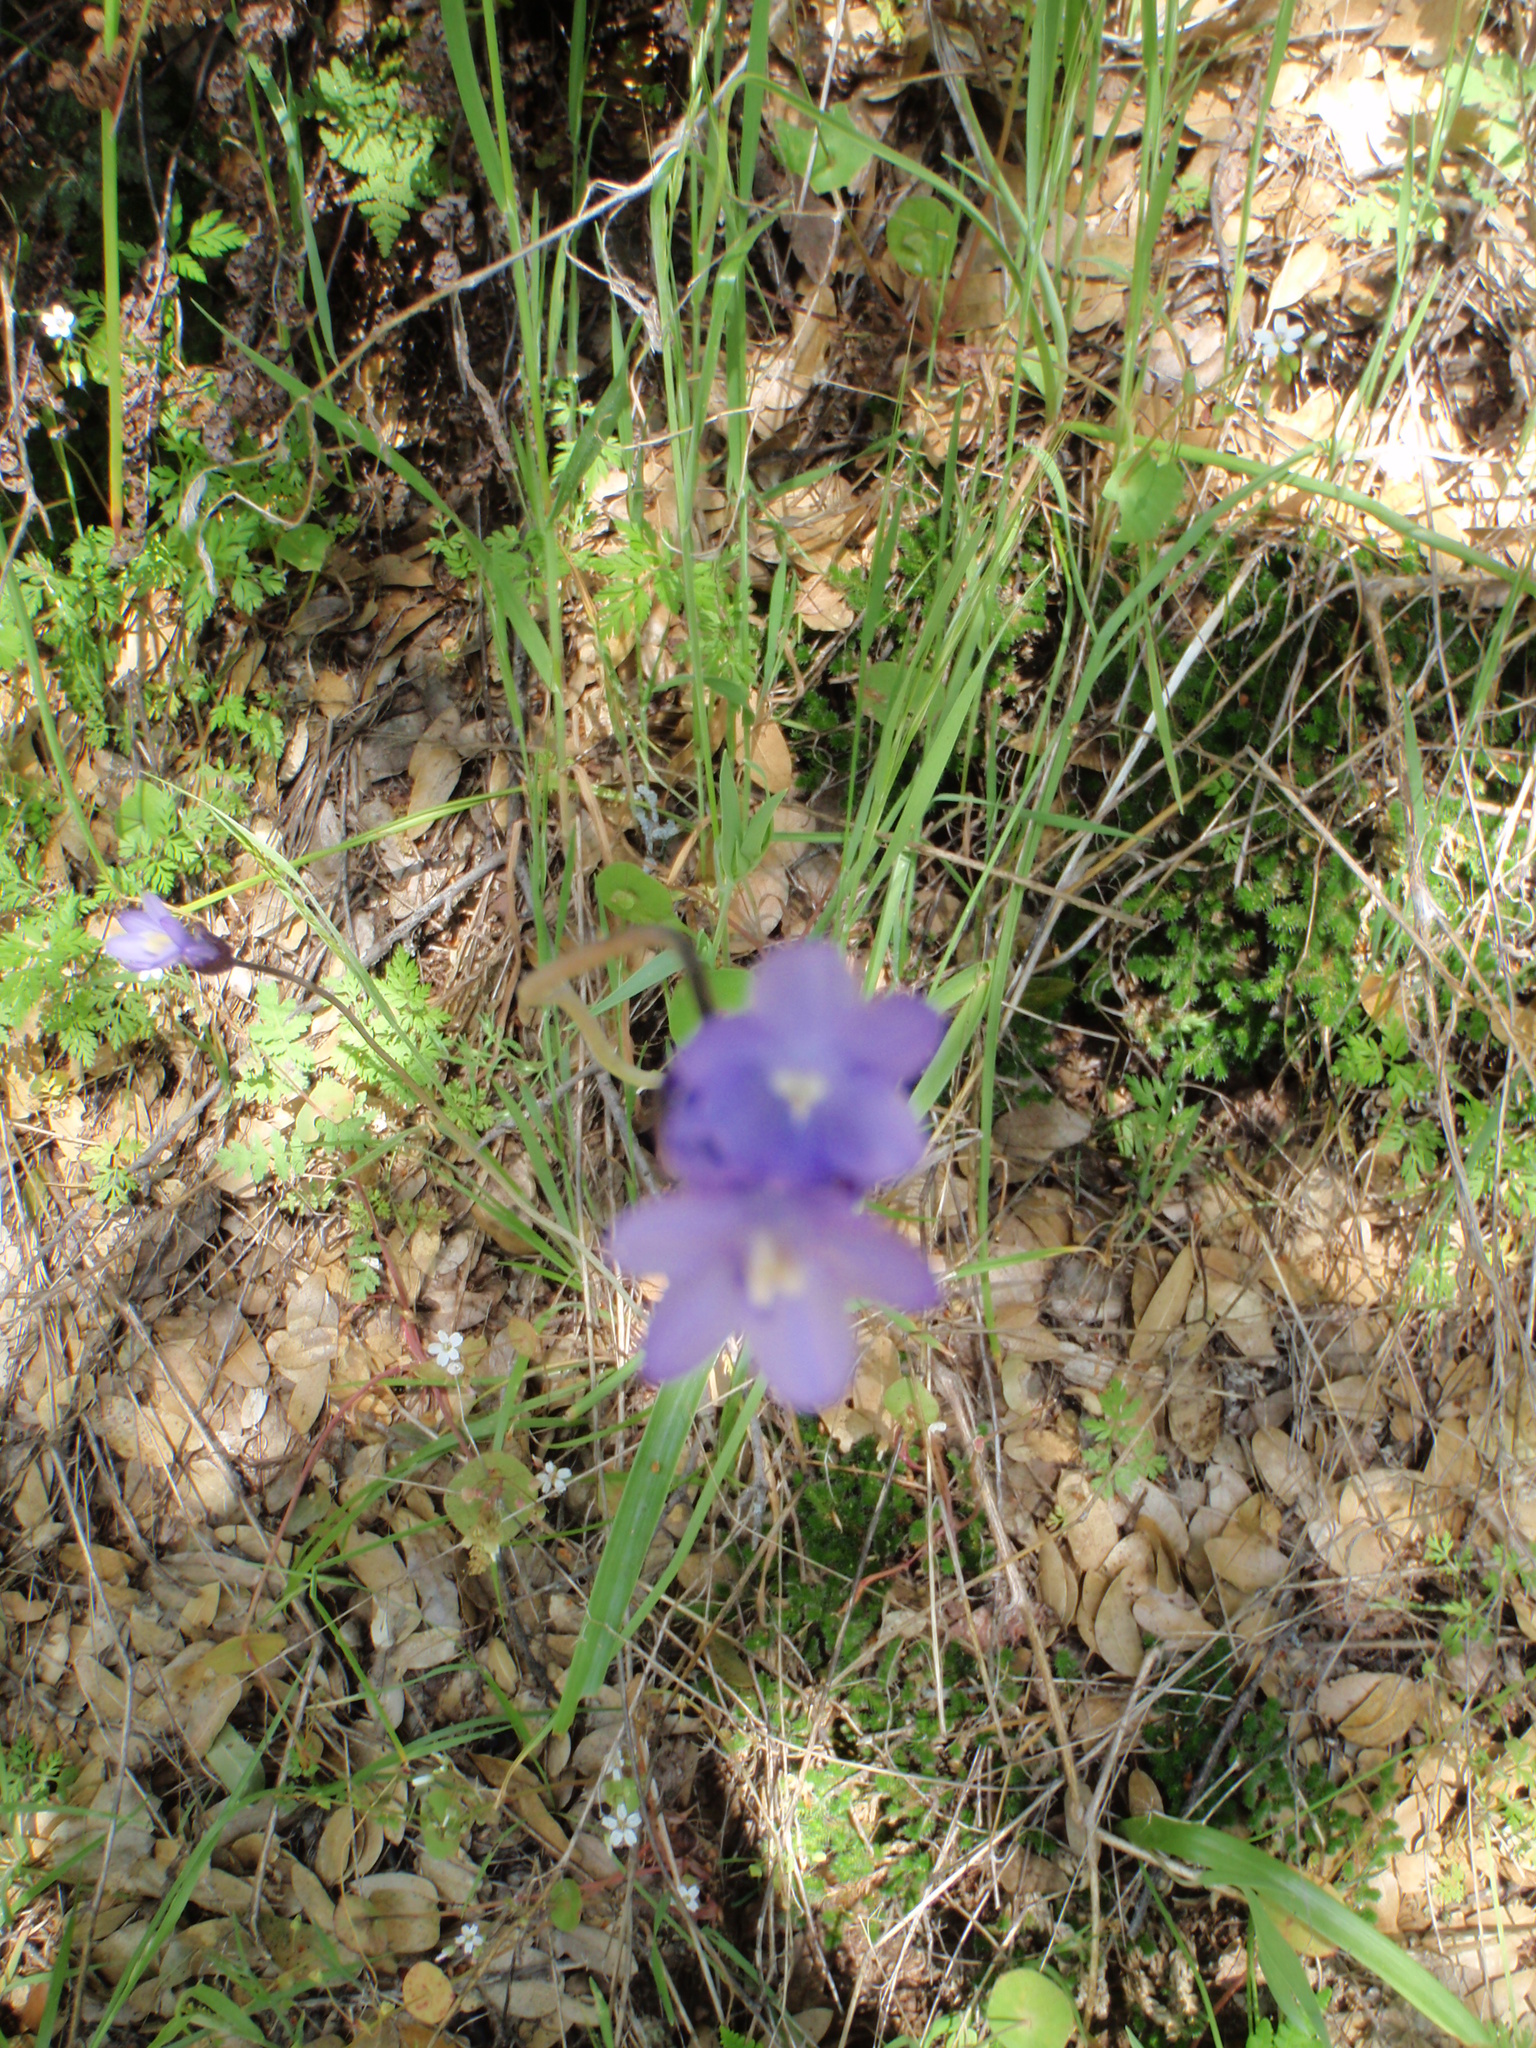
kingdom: Plantae
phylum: Tracheophyta
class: Liliopsida
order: Asparagales
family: Asparagaceae
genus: Dipterostemon
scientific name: Dipterostemon capitatus
